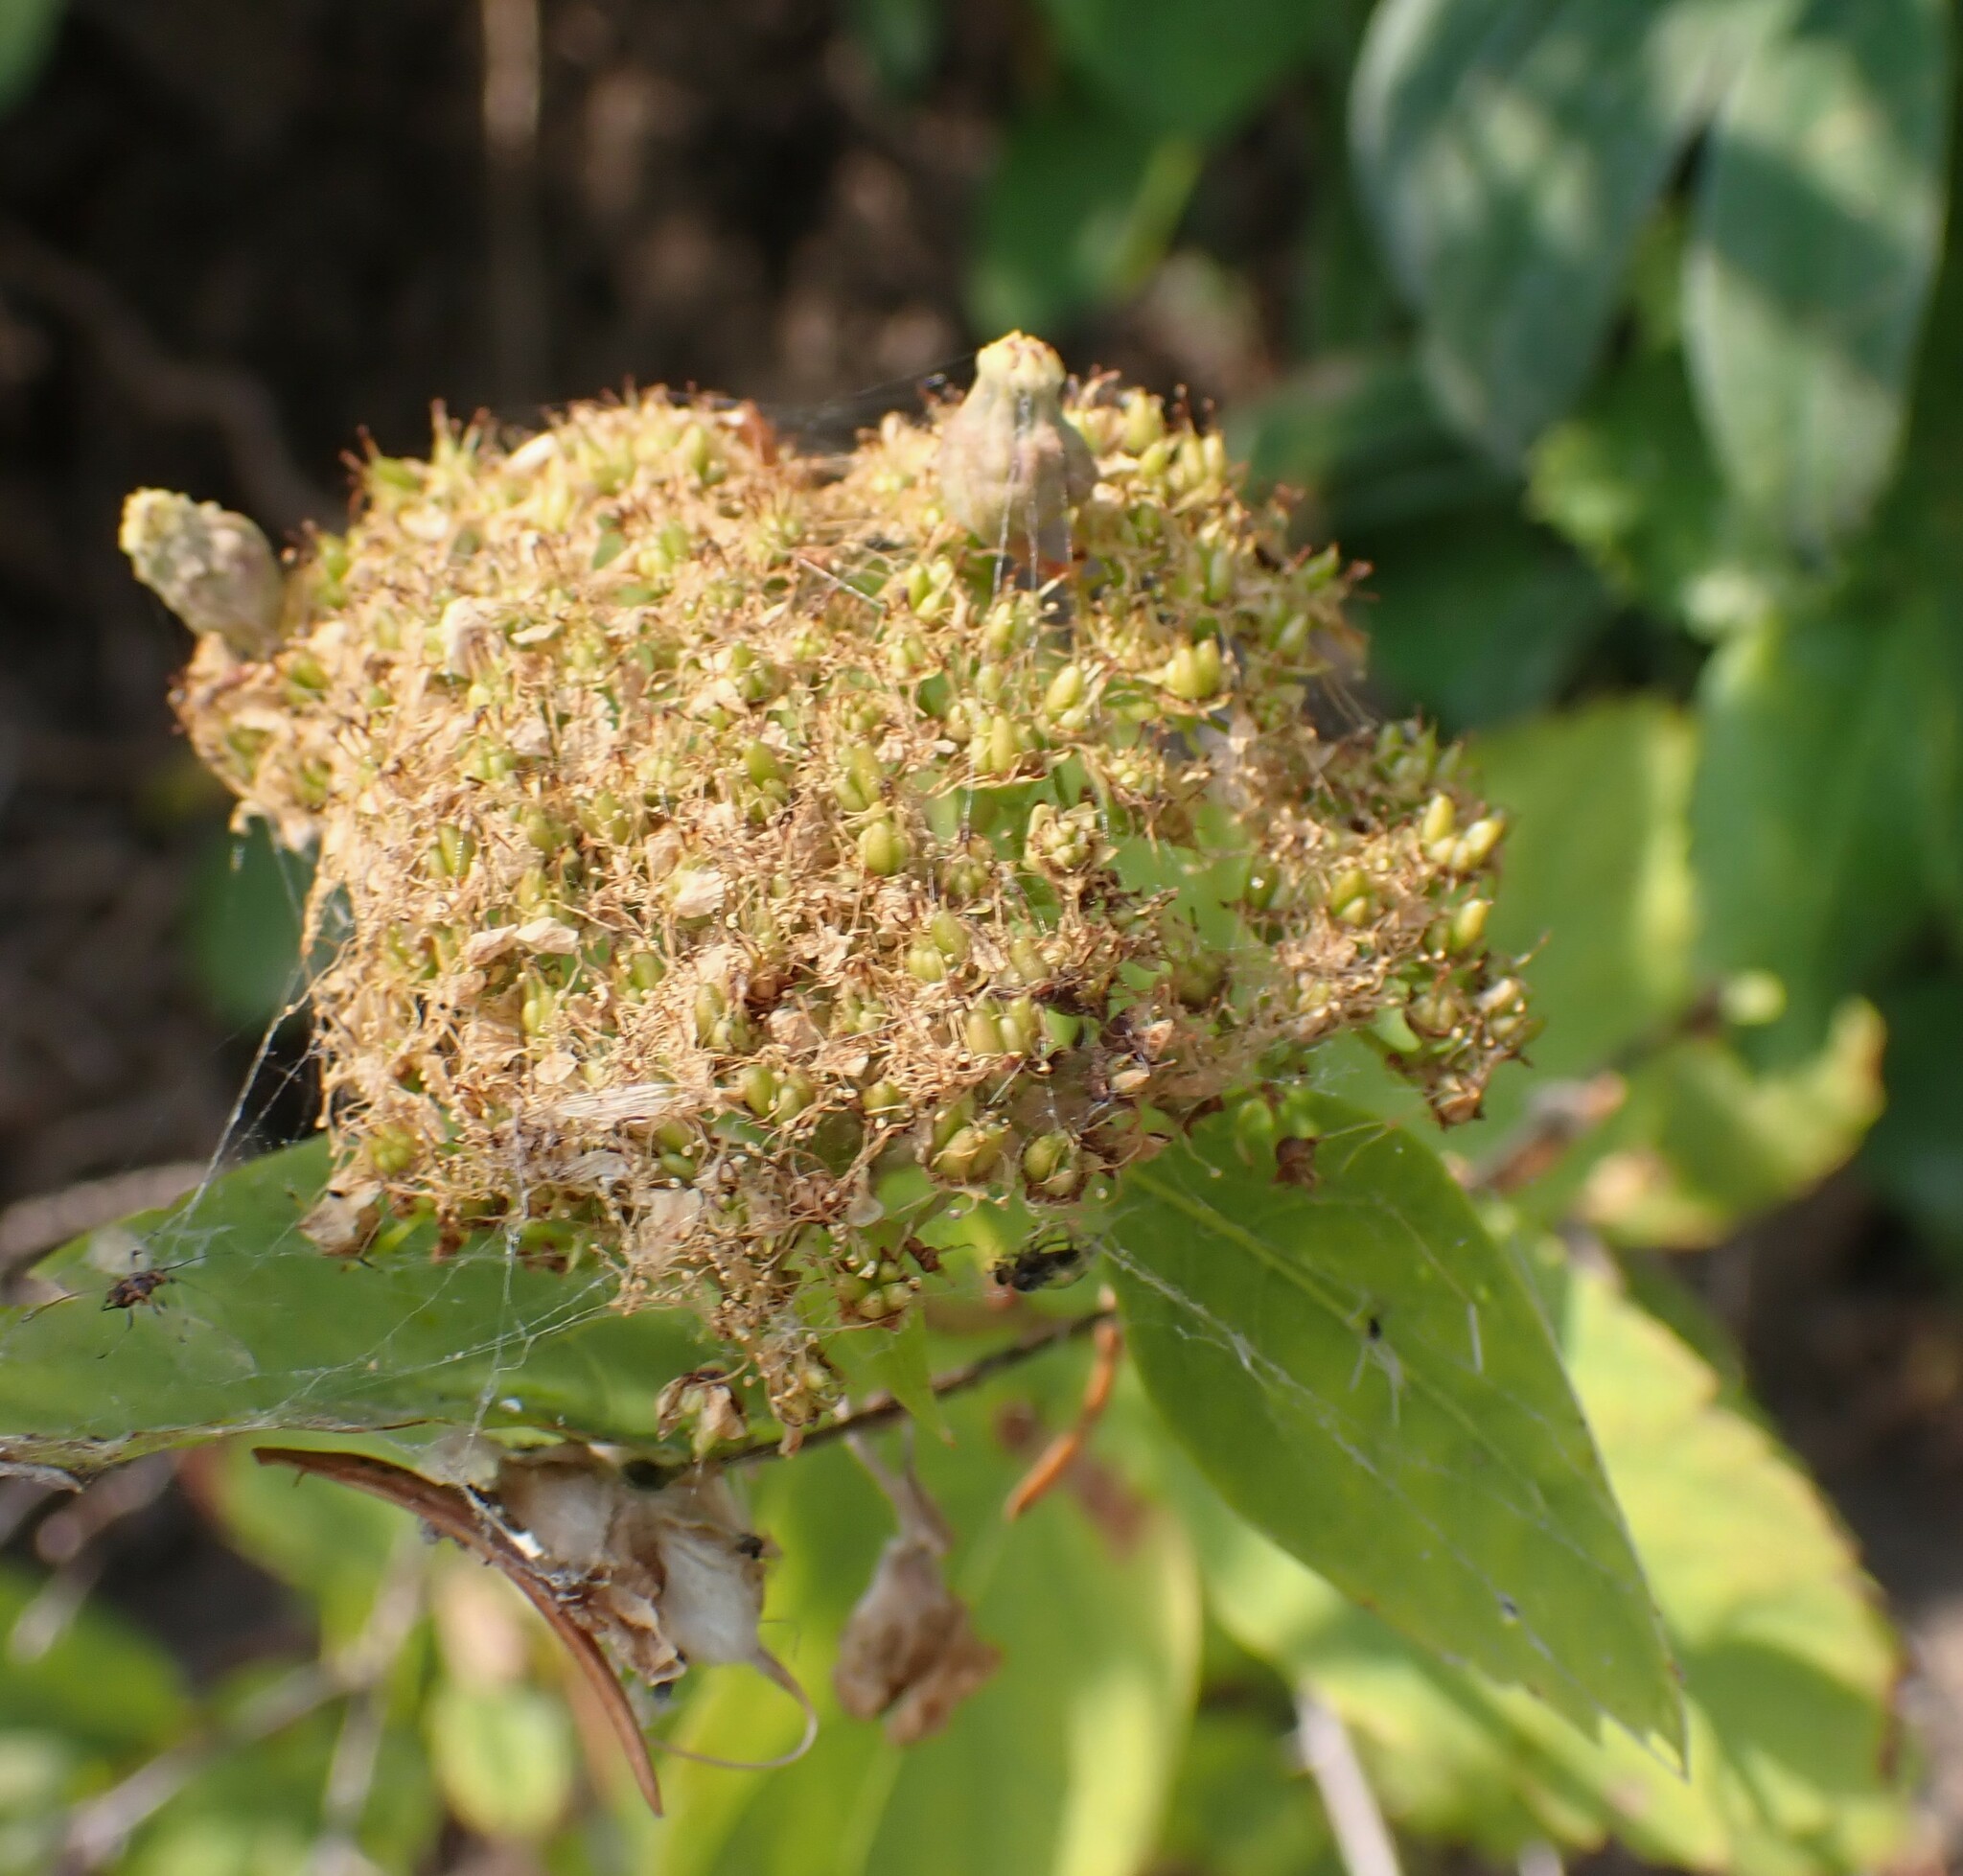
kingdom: Plantae
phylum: Tracheophyta
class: Magnoliopsida
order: Rosales
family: Rosaceae
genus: Spiraea
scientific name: Spiraea lucida
